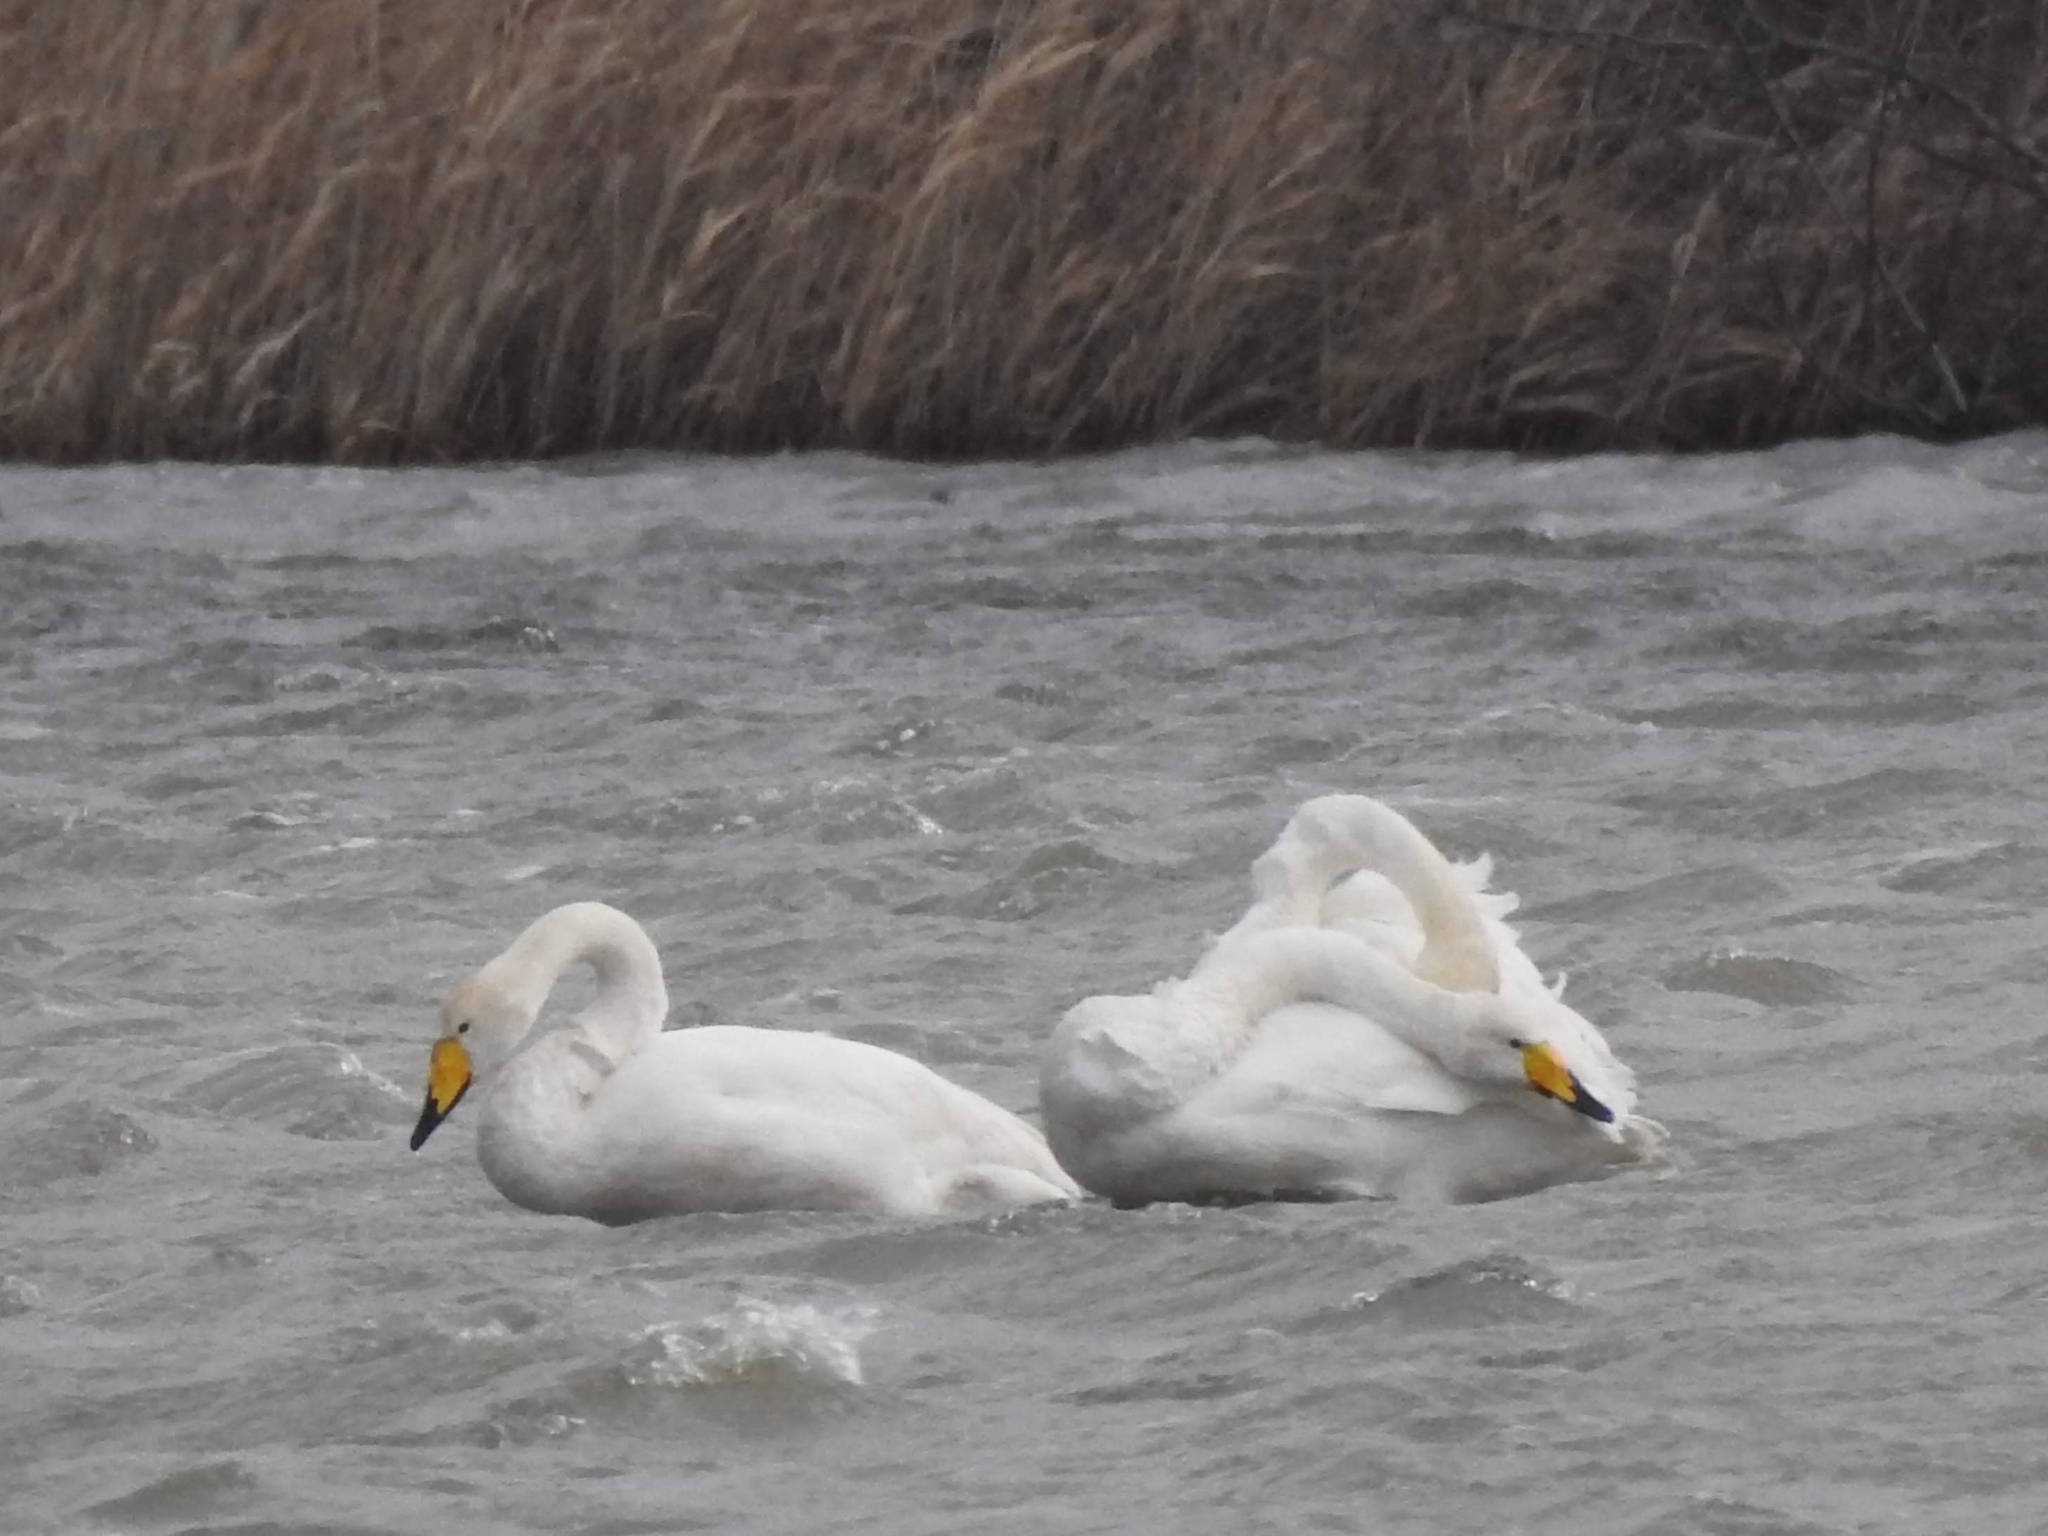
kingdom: Animalia
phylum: Chordata
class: Aves
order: Anseriformes
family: Anatidae
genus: Cygnus
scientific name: Cygnus cygnus
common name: Whooper swan
